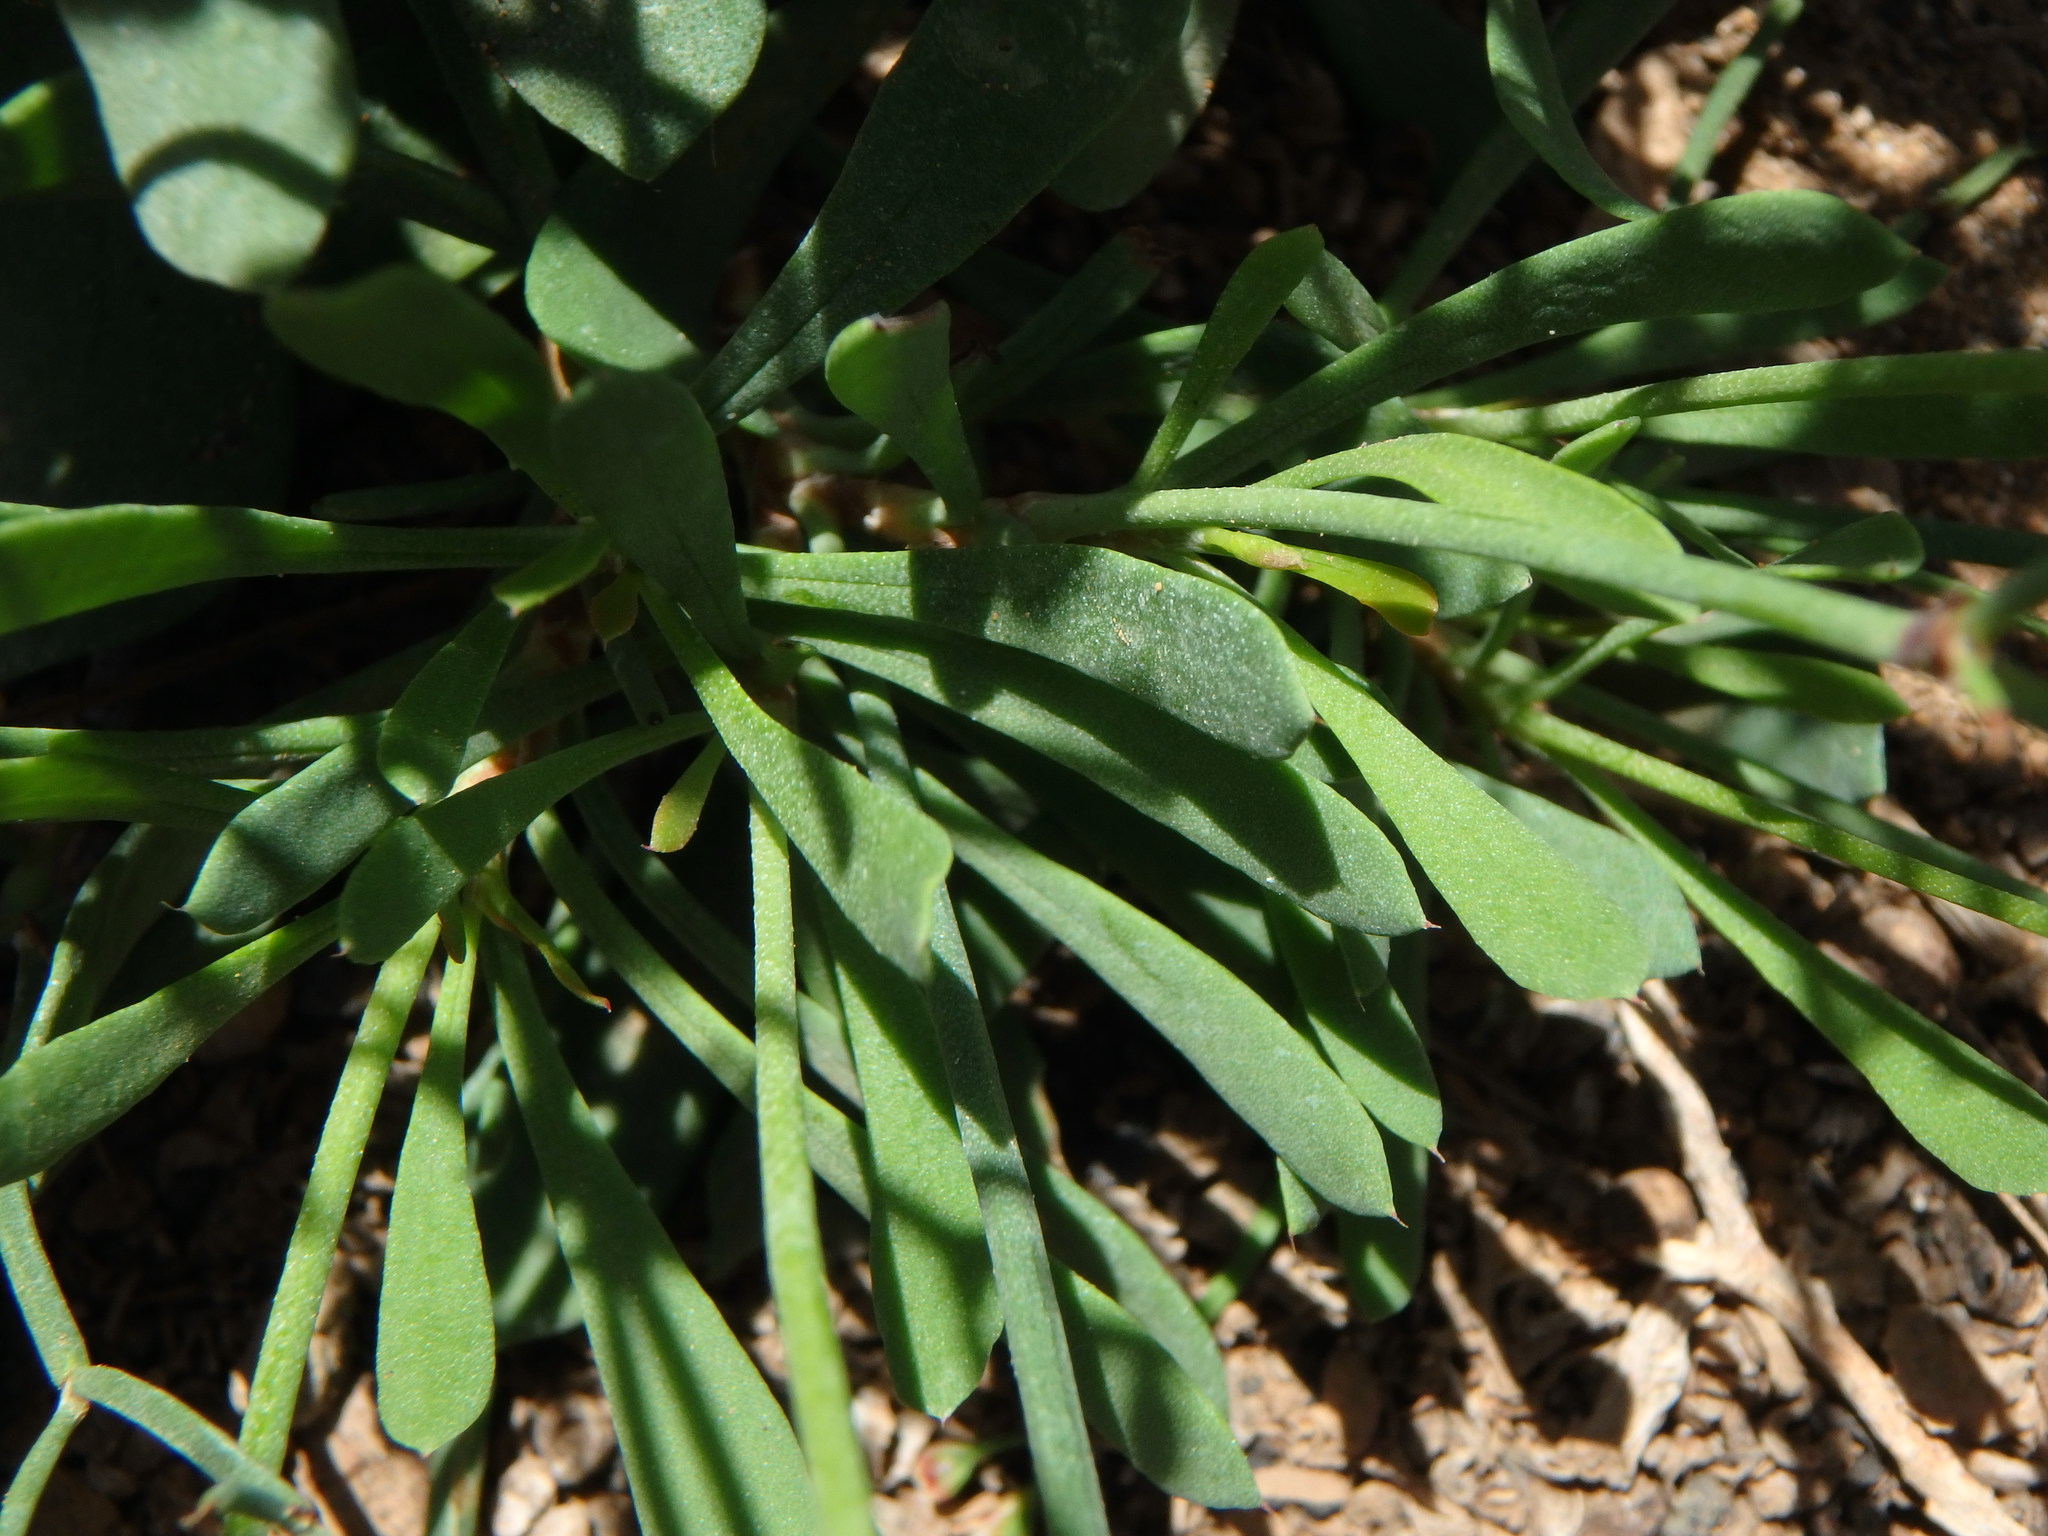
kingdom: Plantae
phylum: Tracheophyta
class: Magnoliopsida
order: Caryophyllales
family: Plumbaginaceae
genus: Limonium
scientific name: Limonium pectinatum
